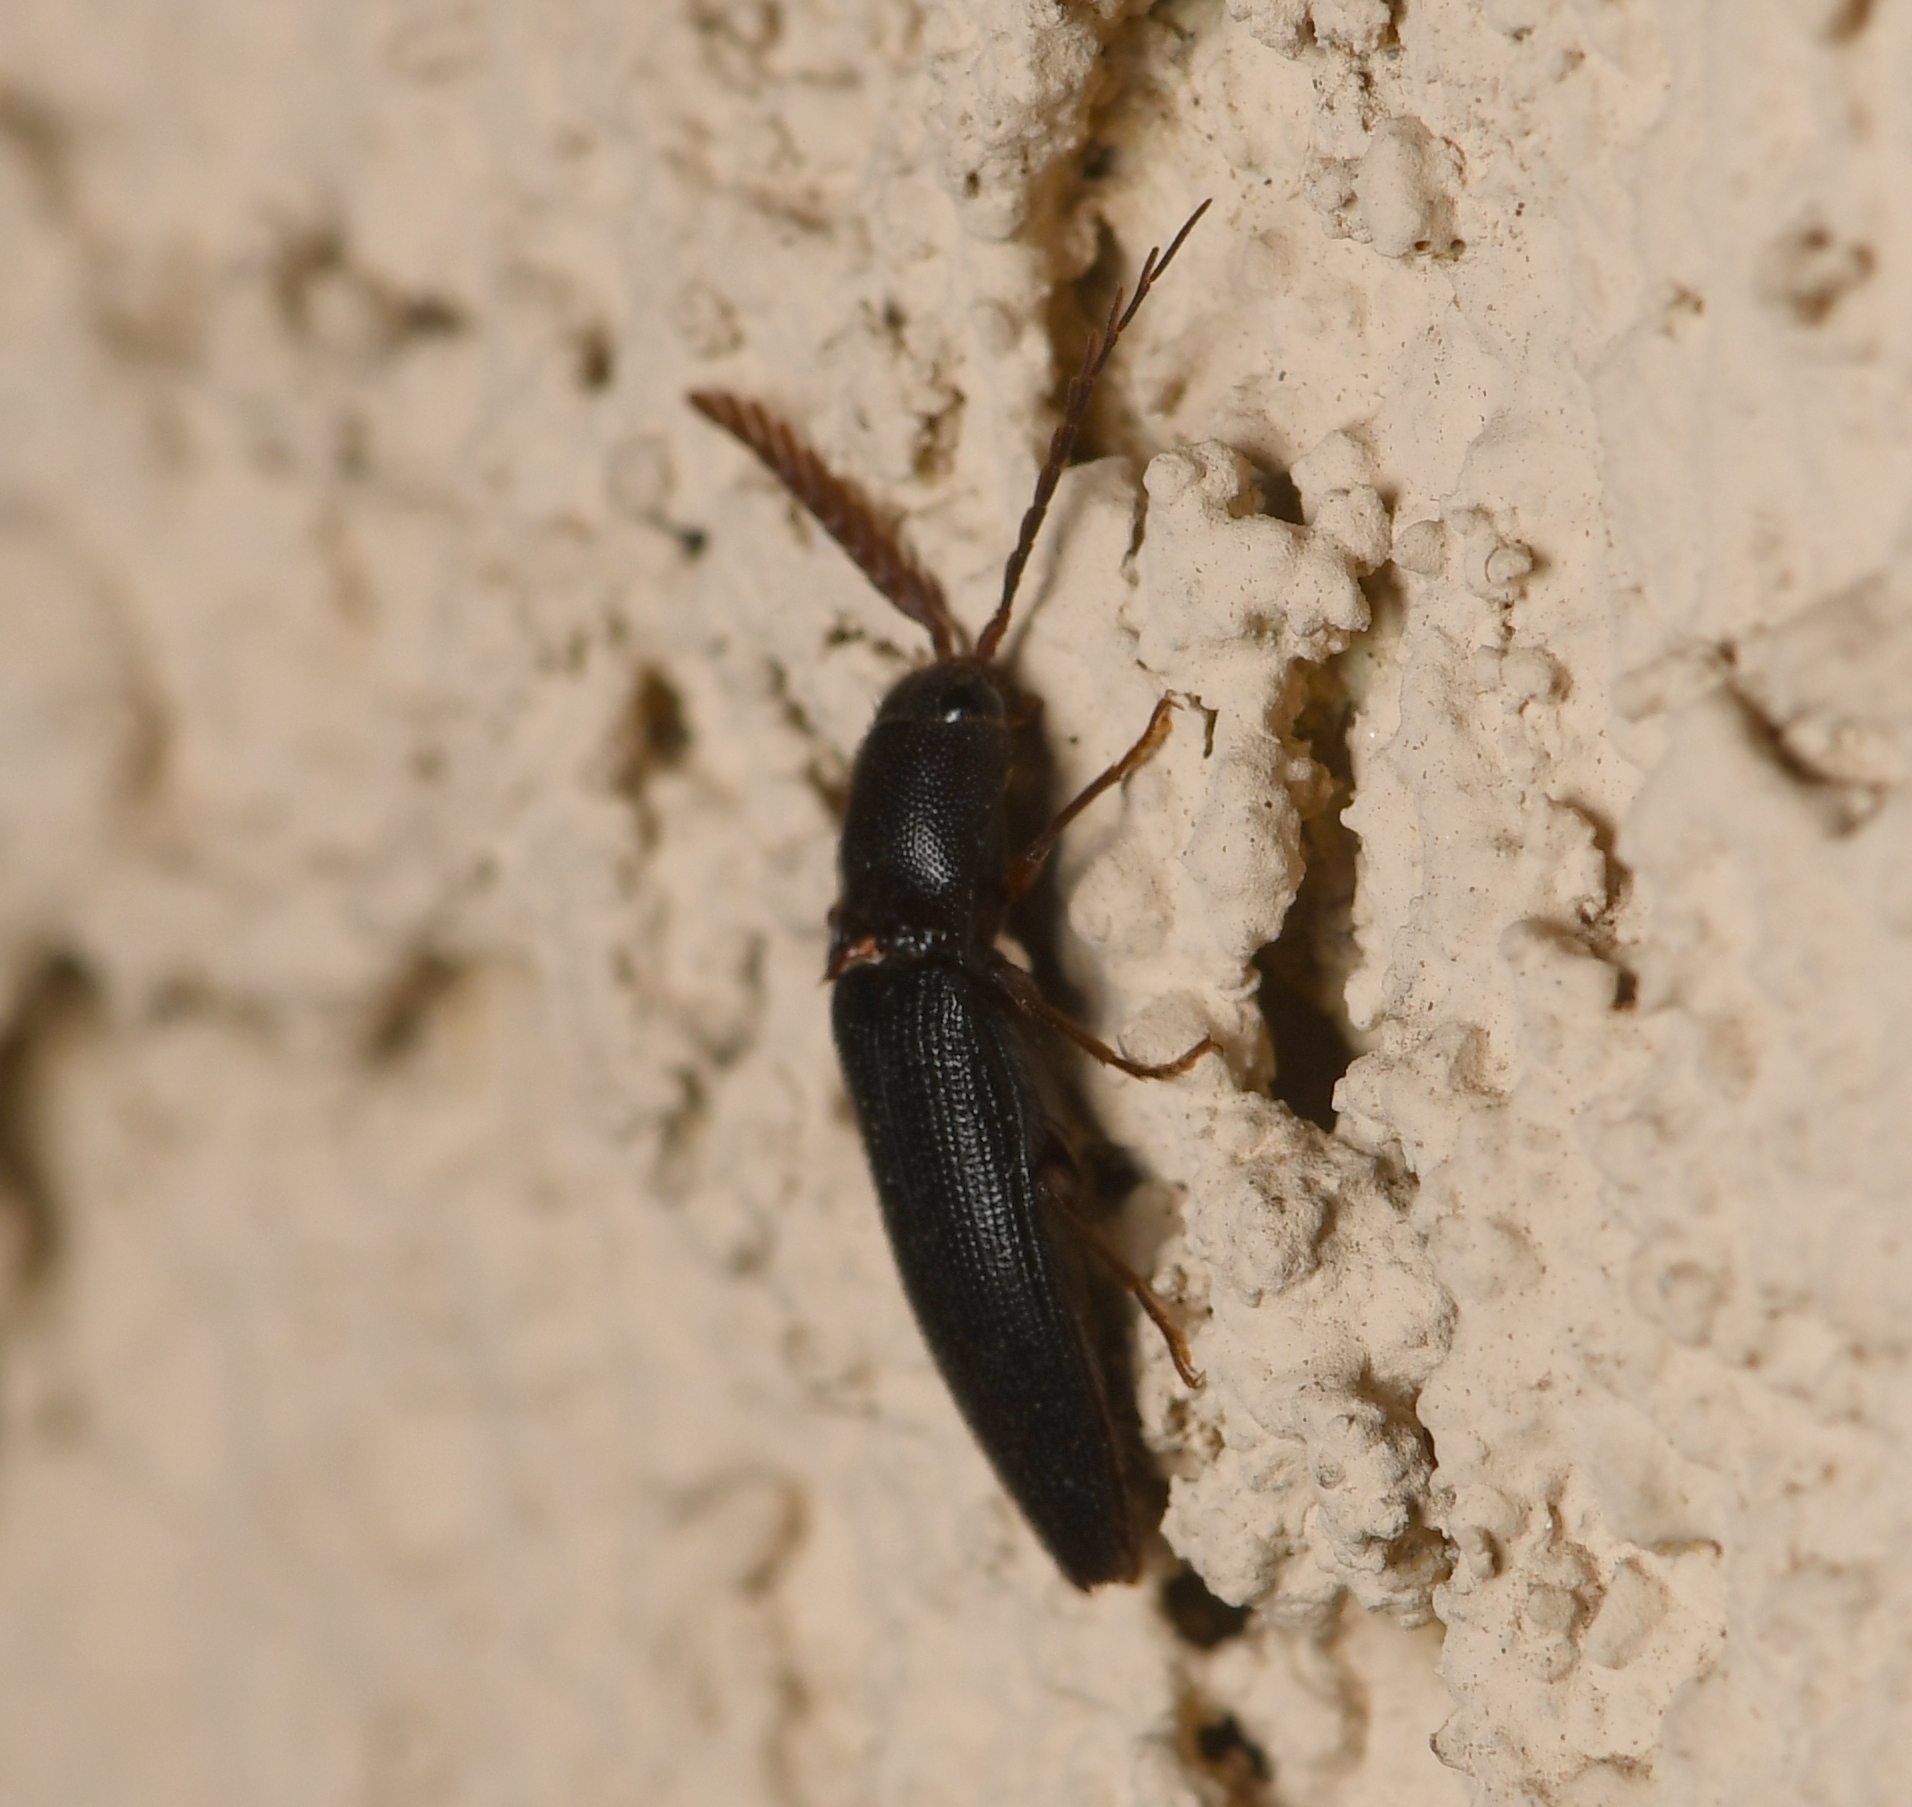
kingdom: Animalia
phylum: Arthropoda
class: Insecta
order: Coleoptera
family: Elateridae
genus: Dicrepidius
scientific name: Dicrepidius corvinus
